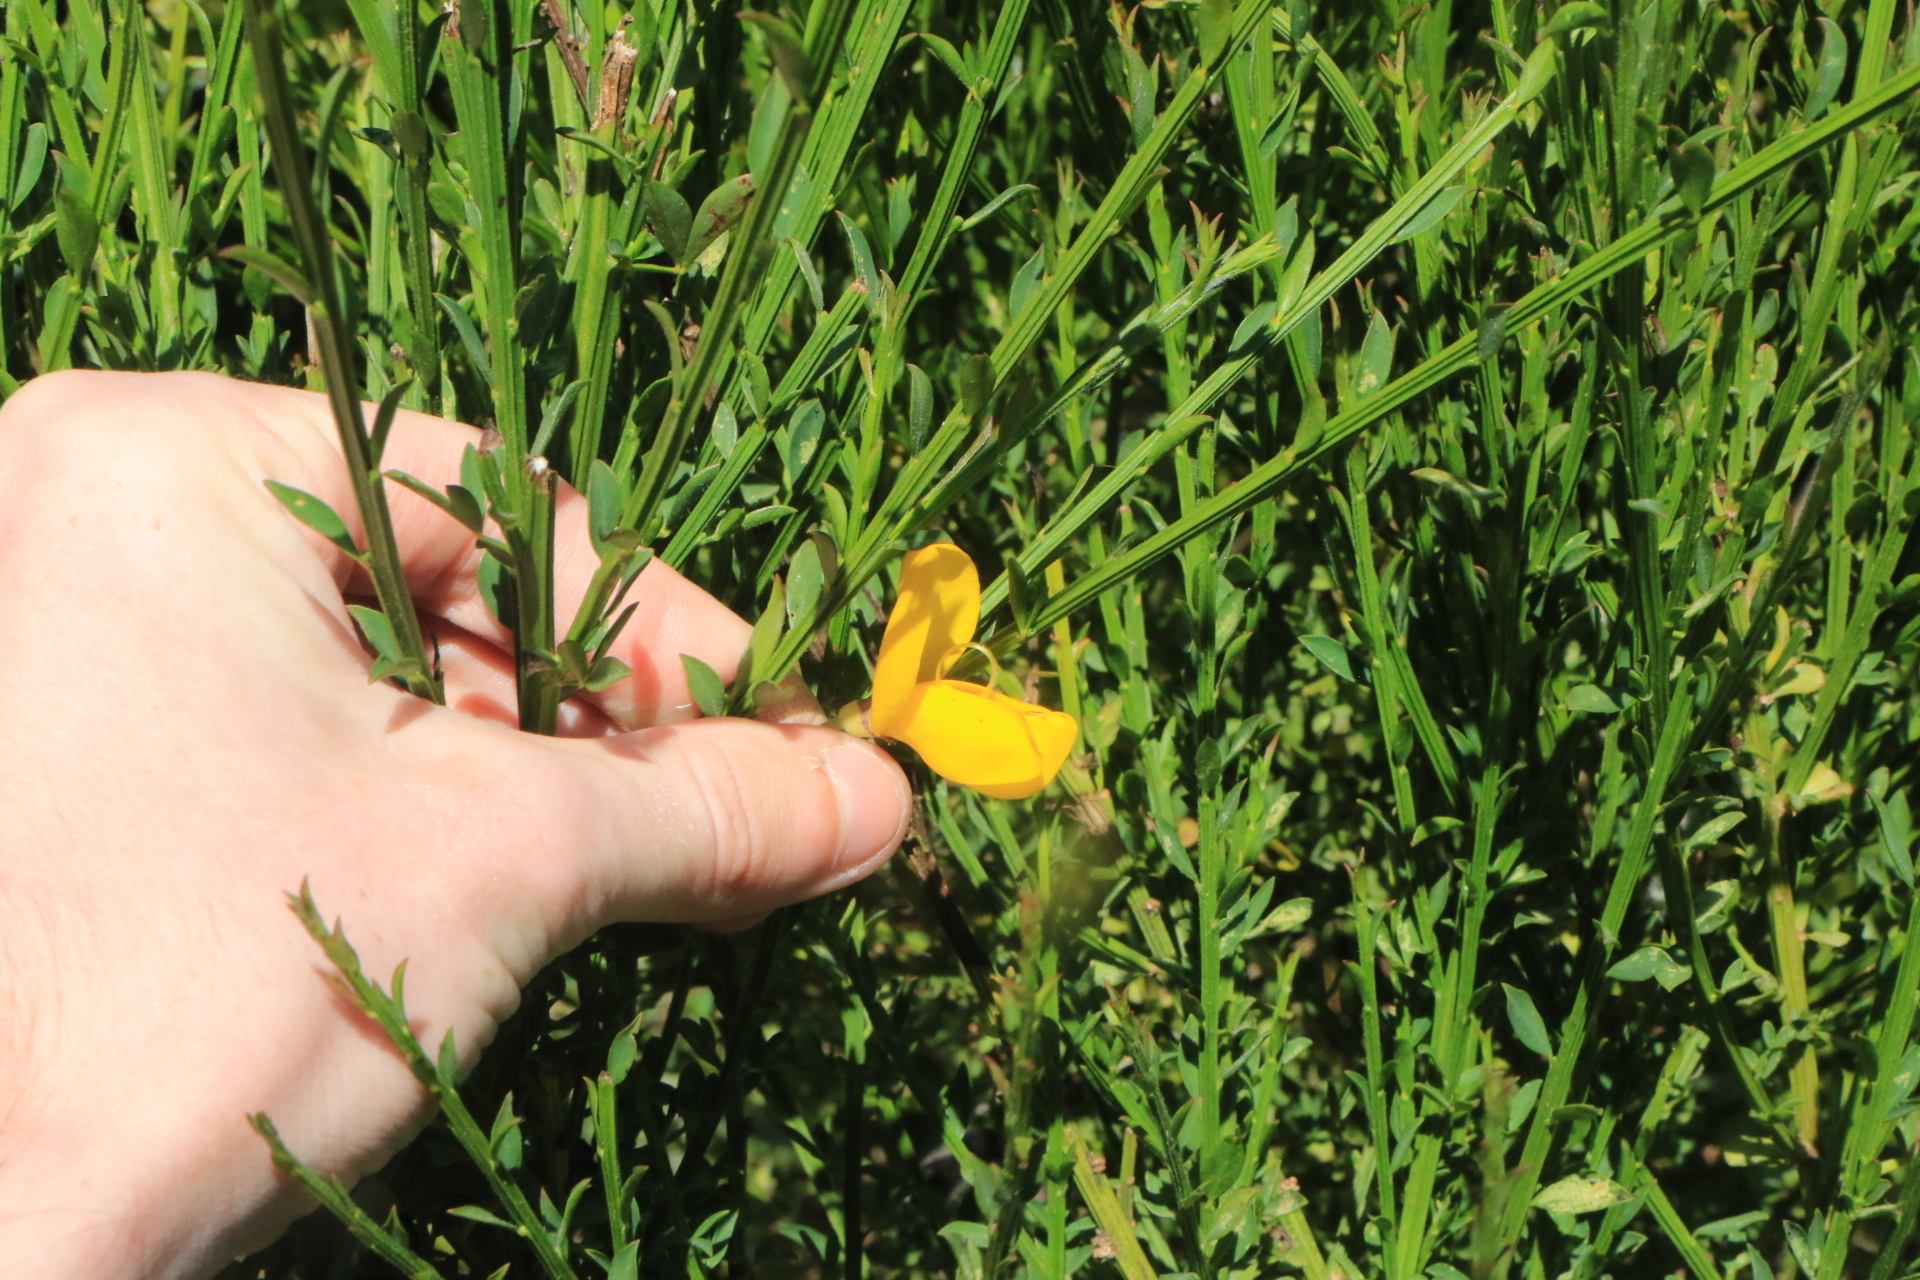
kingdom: Plantae
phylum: Tracheophyta
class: Magnoliopsida
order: Fabales
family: Fabaceae
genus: Cytisus
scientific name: Cytisus scoparius
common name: Scotch broom
